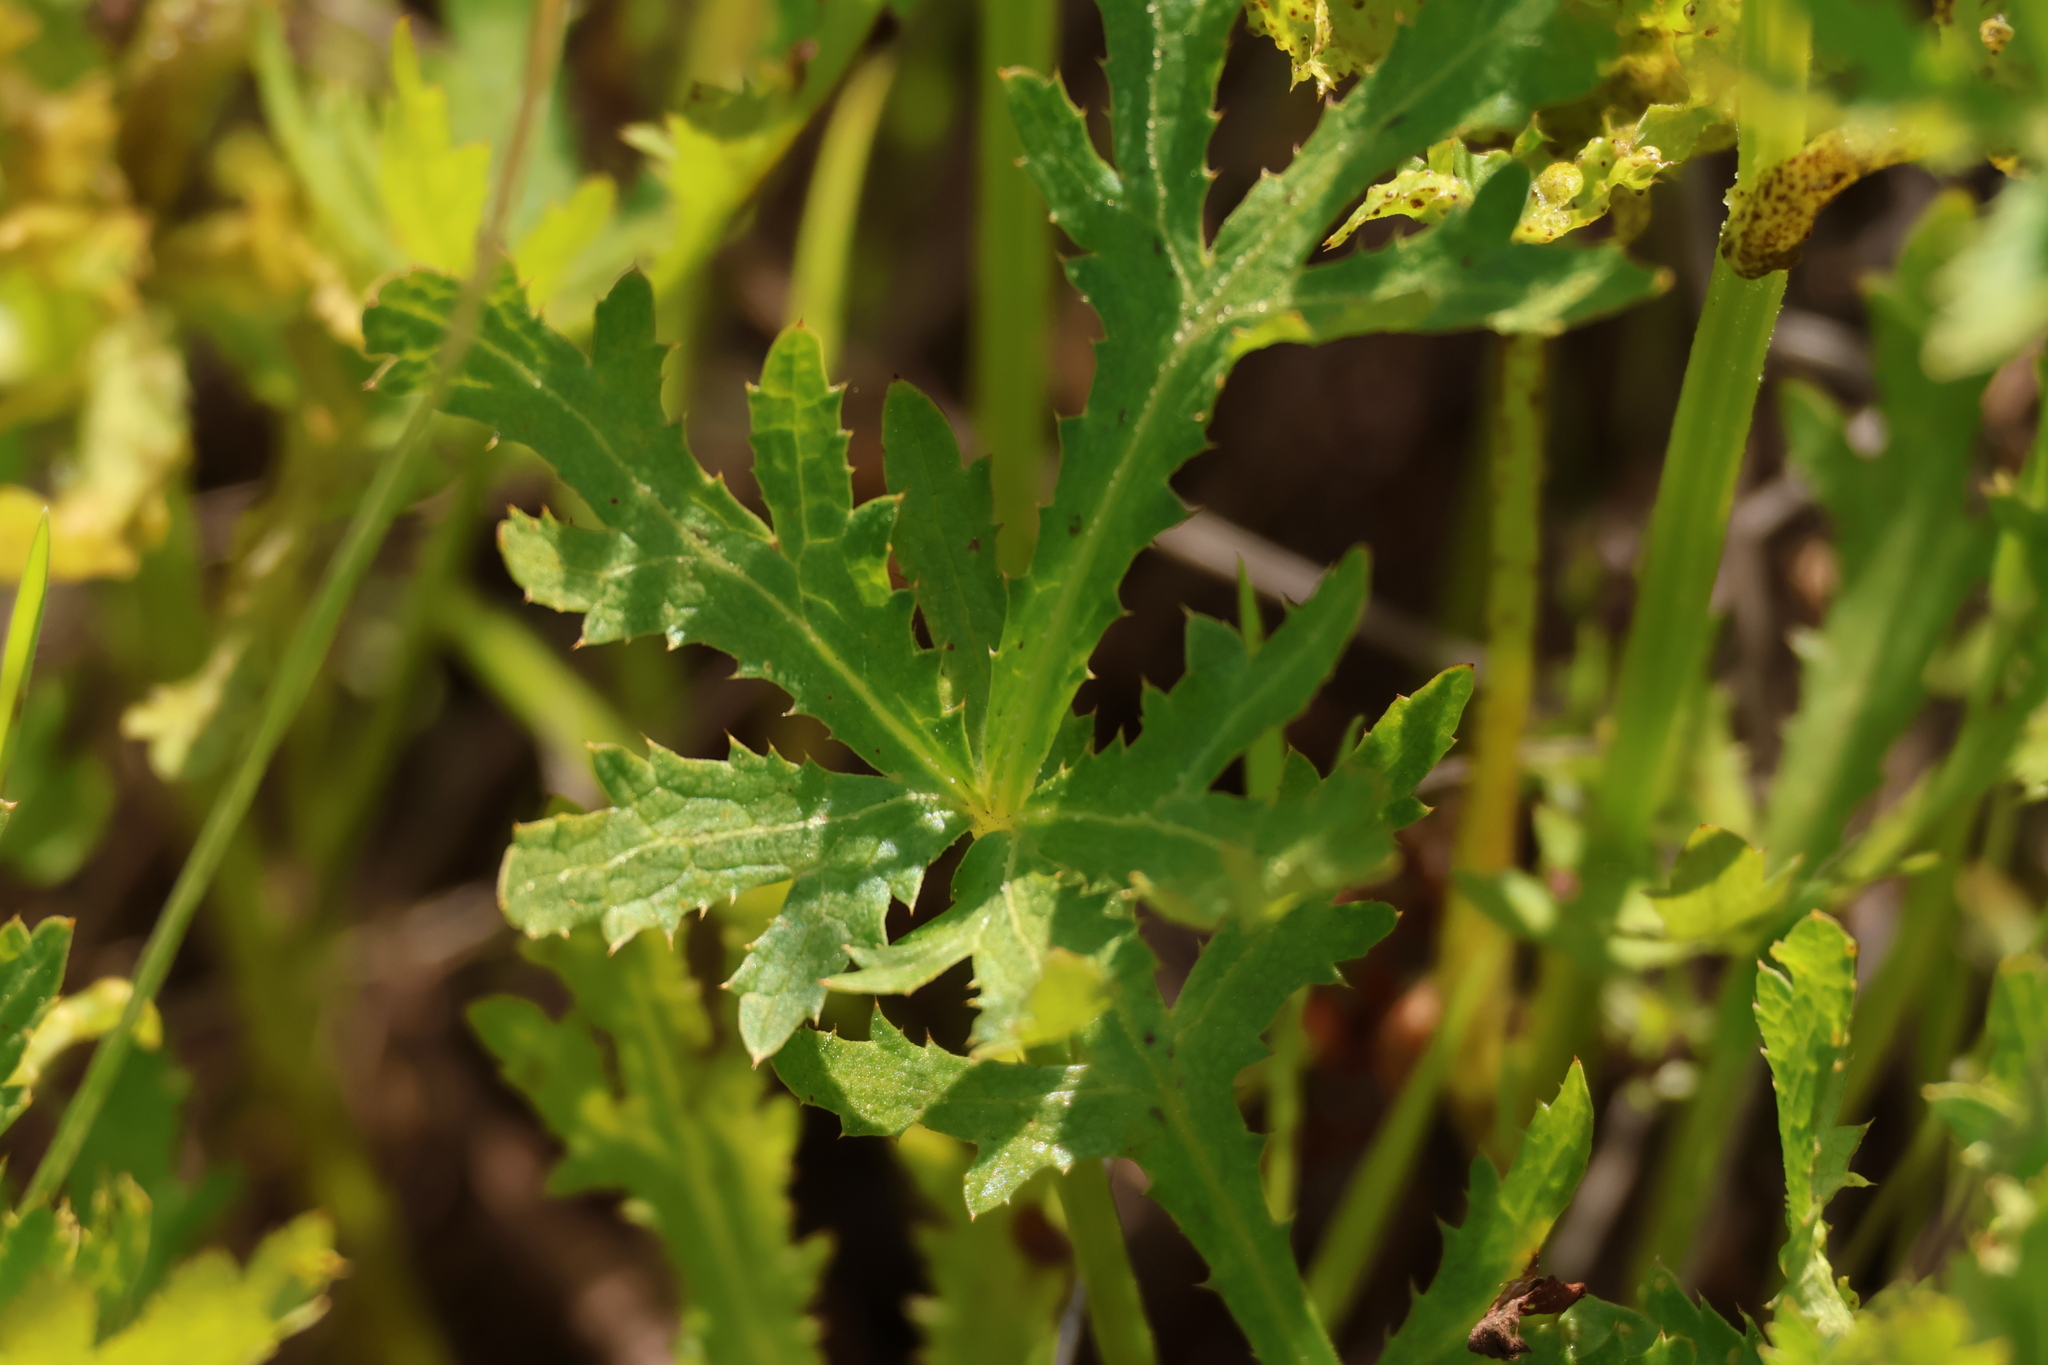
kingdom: Plantae
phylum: Tracheophyta
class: Magnoliopsida
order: Apiales
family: Apiaceae
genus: Sanicula
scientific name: Sanicula arguta
